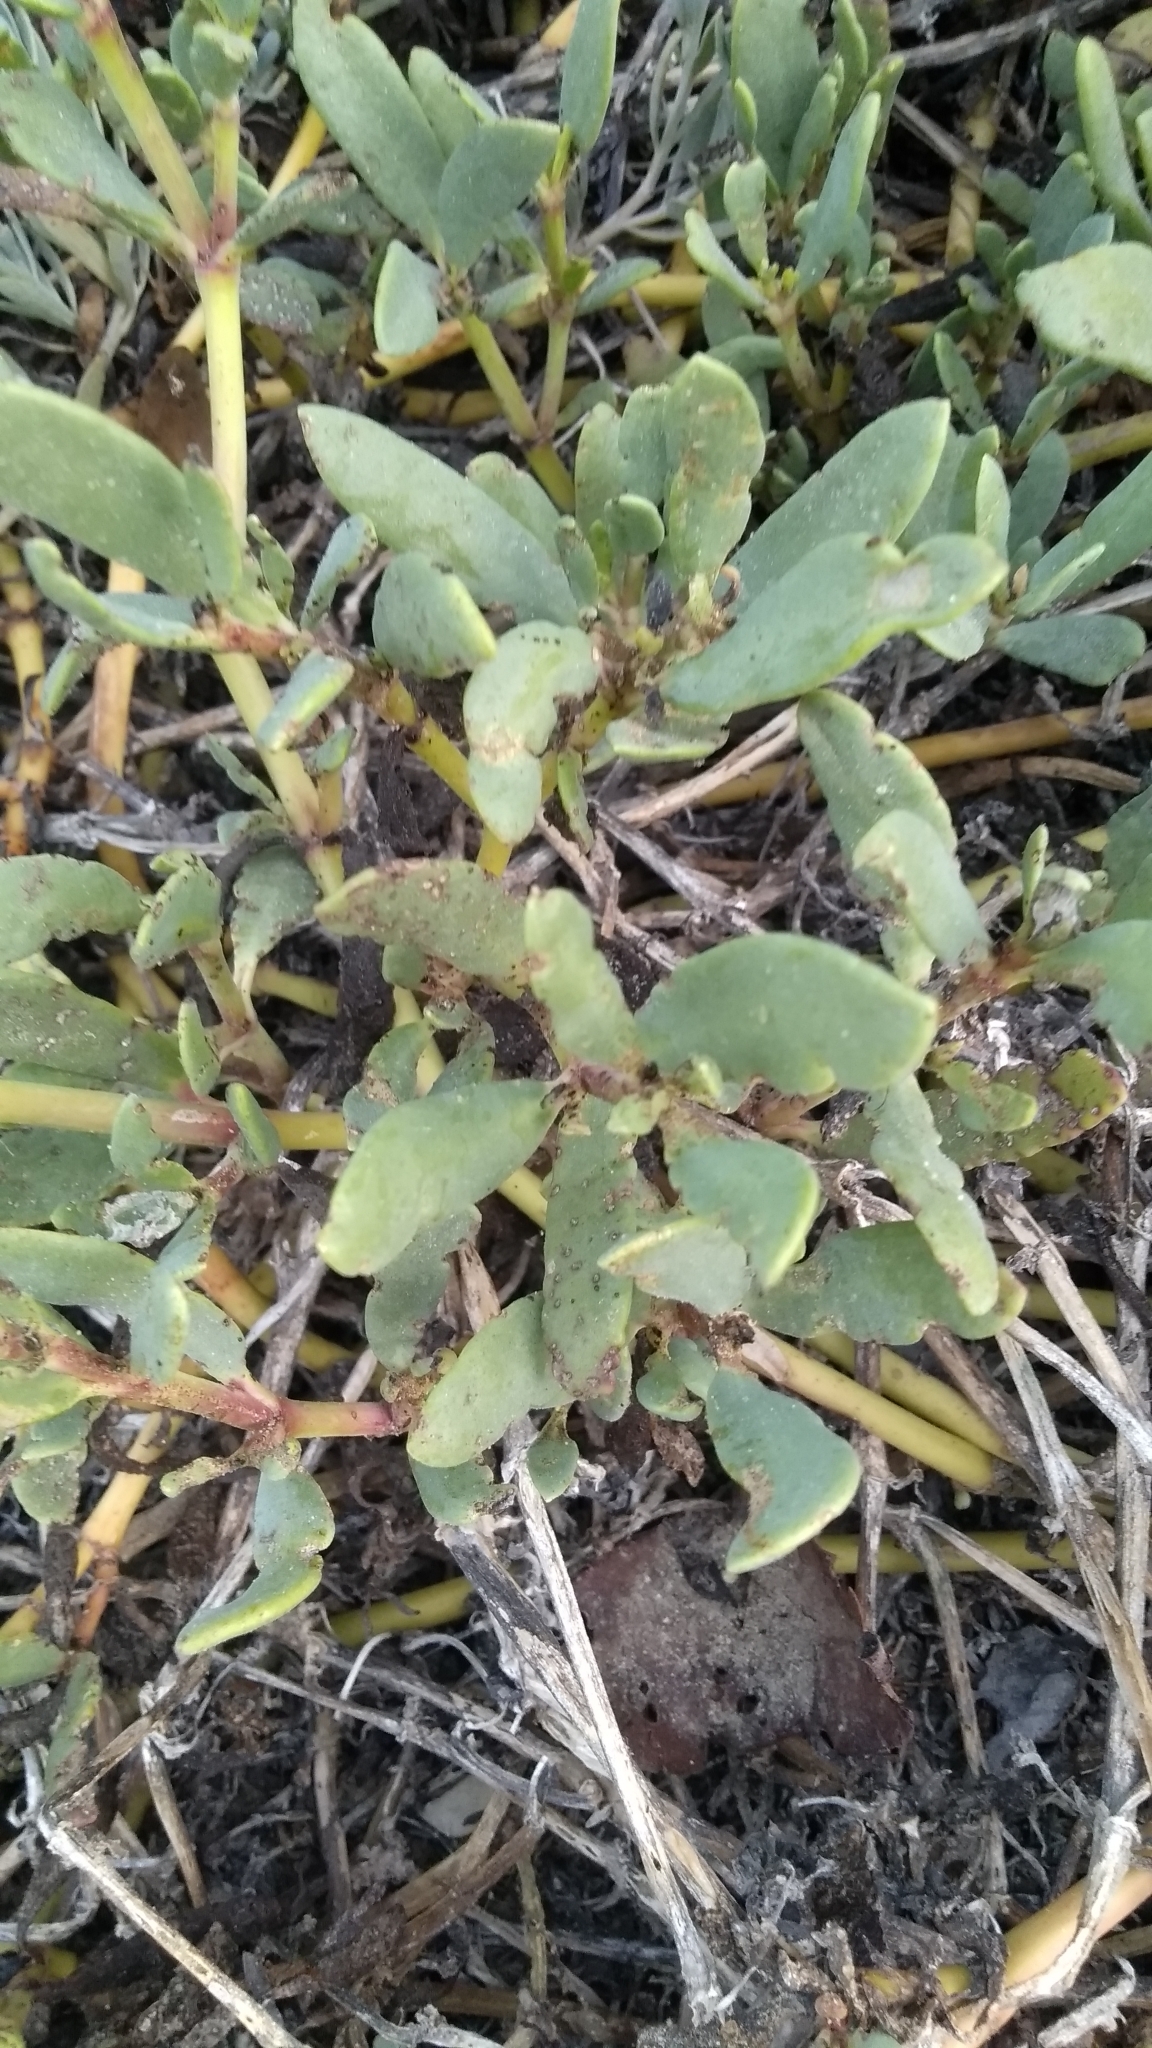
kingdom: Plantae
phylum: Tracheophyta
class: Magnoliopsida
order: Caryophyllales
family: Aizoaceae
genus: Sesuvium
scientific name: Sesuvium portulacastrum
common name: Sea-purslane
